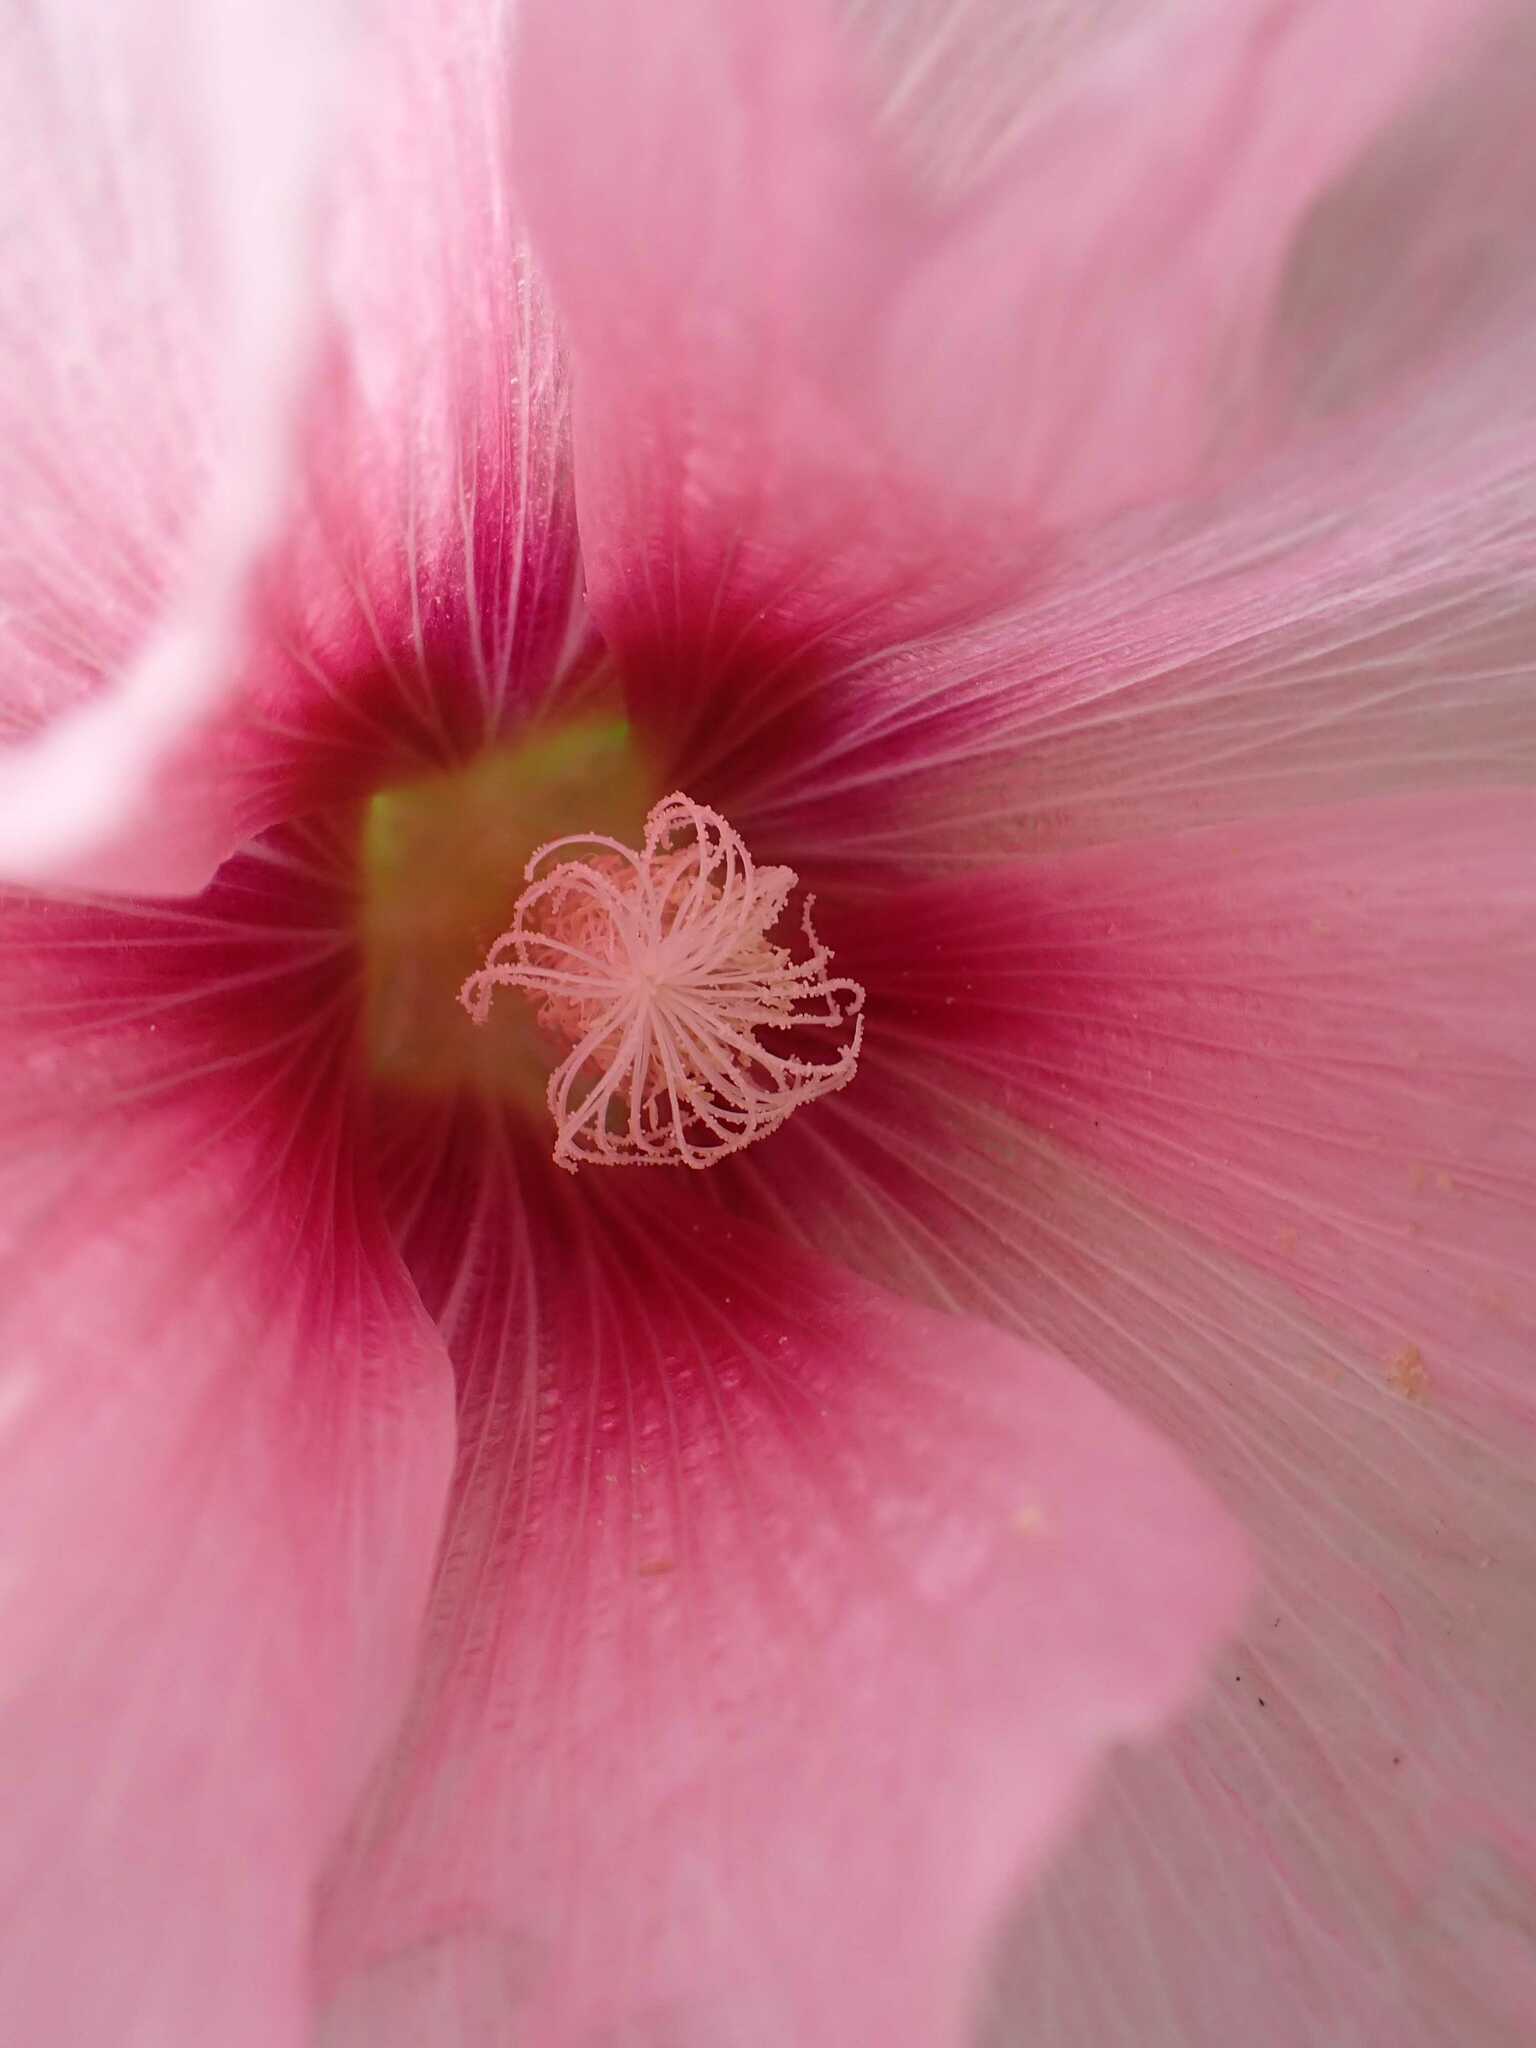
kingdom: Plantae
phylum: Tracheophyta
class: Magnoliopsida
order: Malvales
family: Malvaceae
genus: Alcea
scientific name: Alcea rosea
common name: Hollyhock
